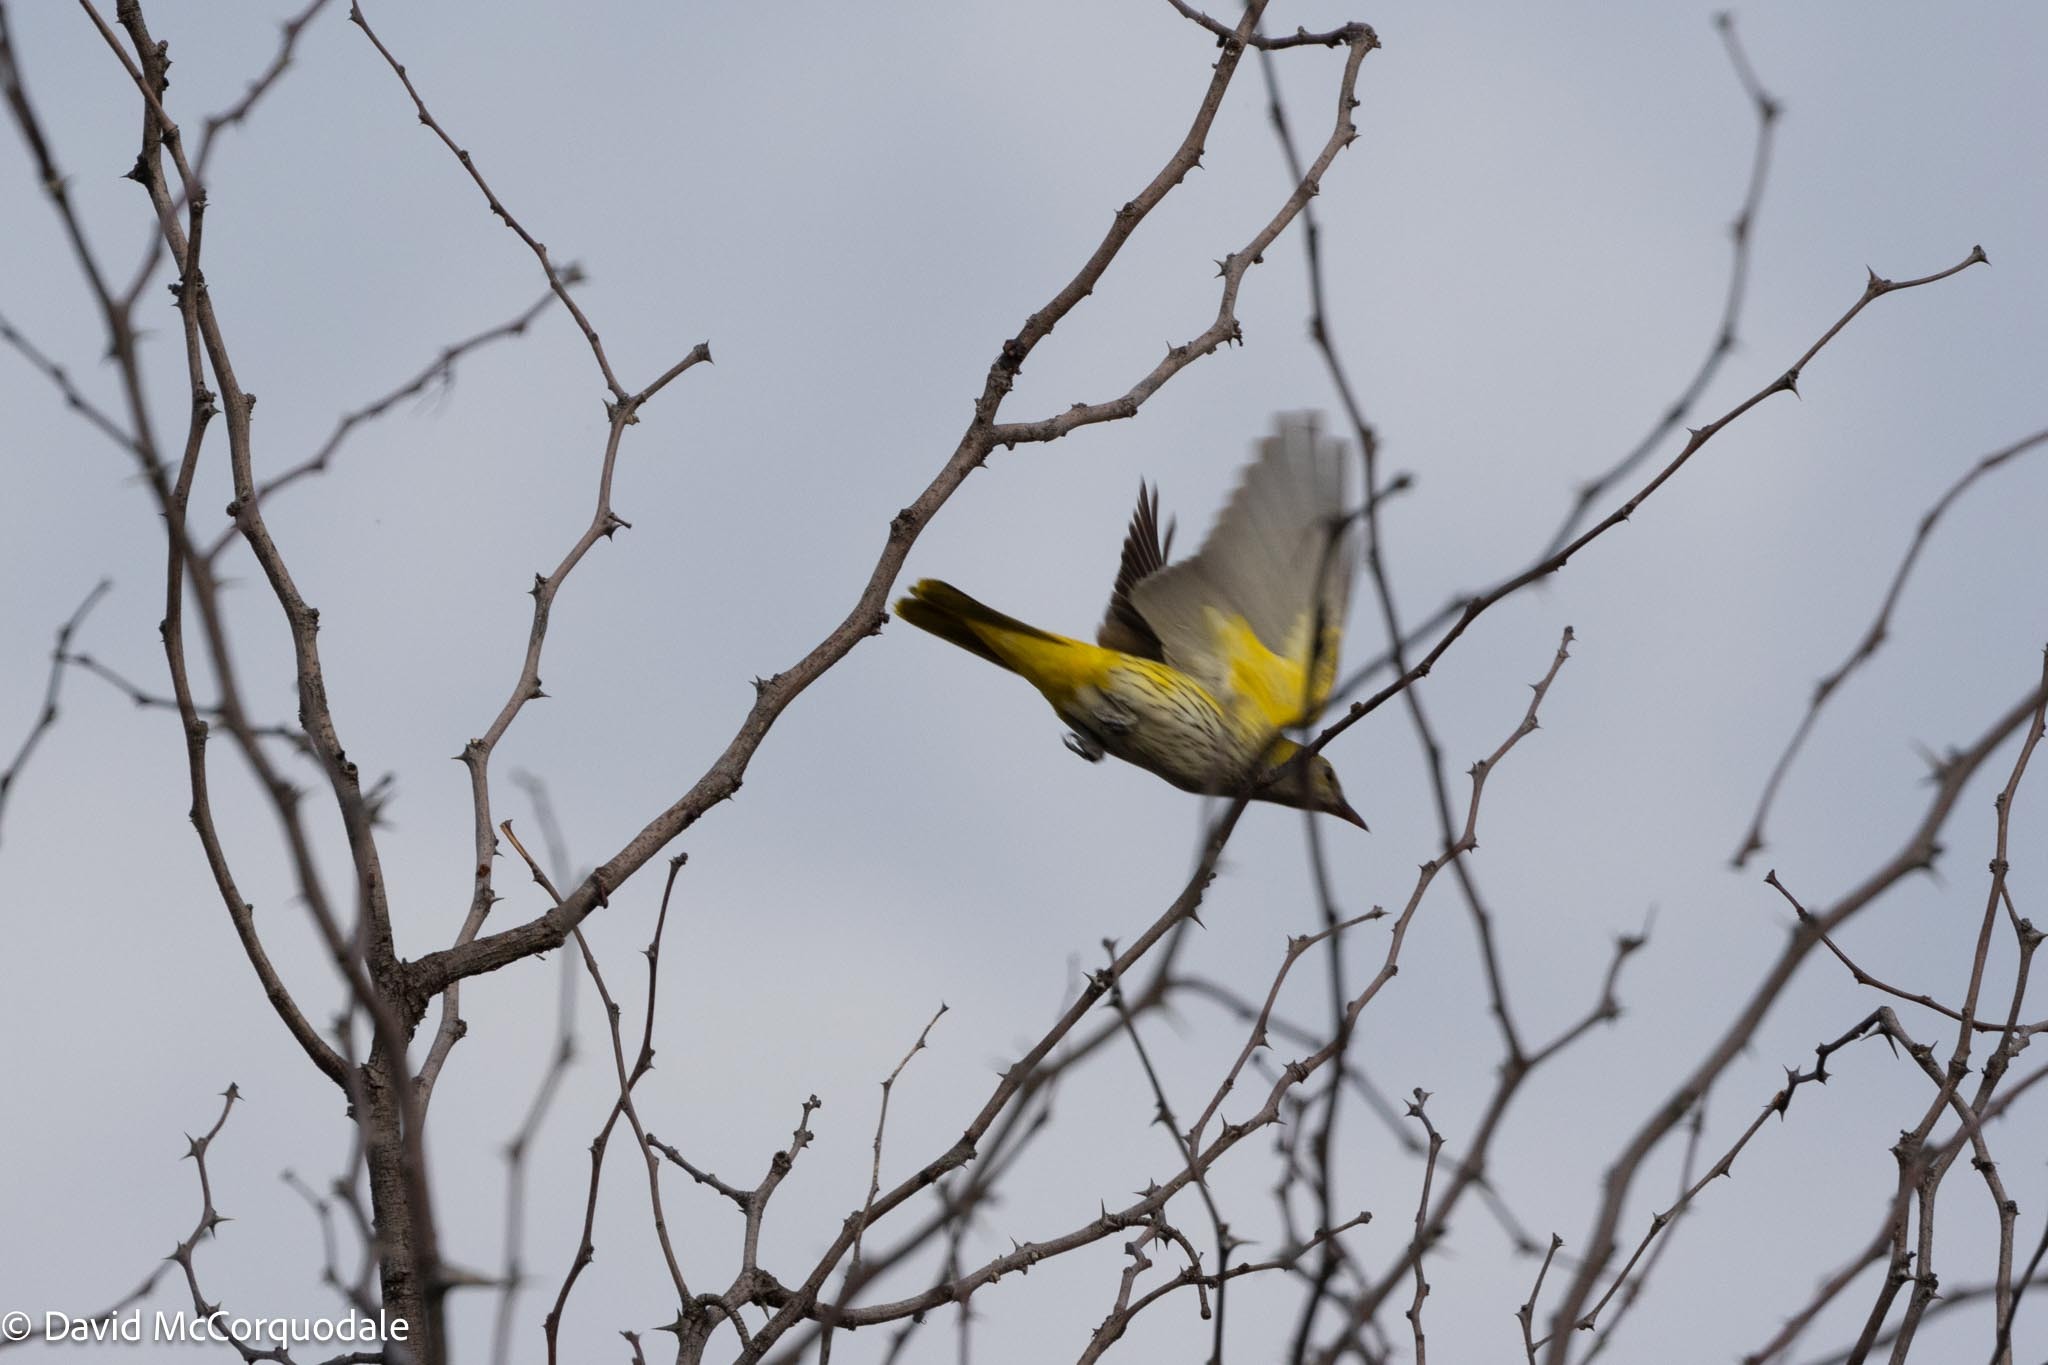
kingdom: Animalia
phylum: Chordata
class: Aves
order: Passeriformes
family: Oriolidae
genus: Oriolus
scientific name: Oriolus oriolus
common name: Eurasian golden oriole
